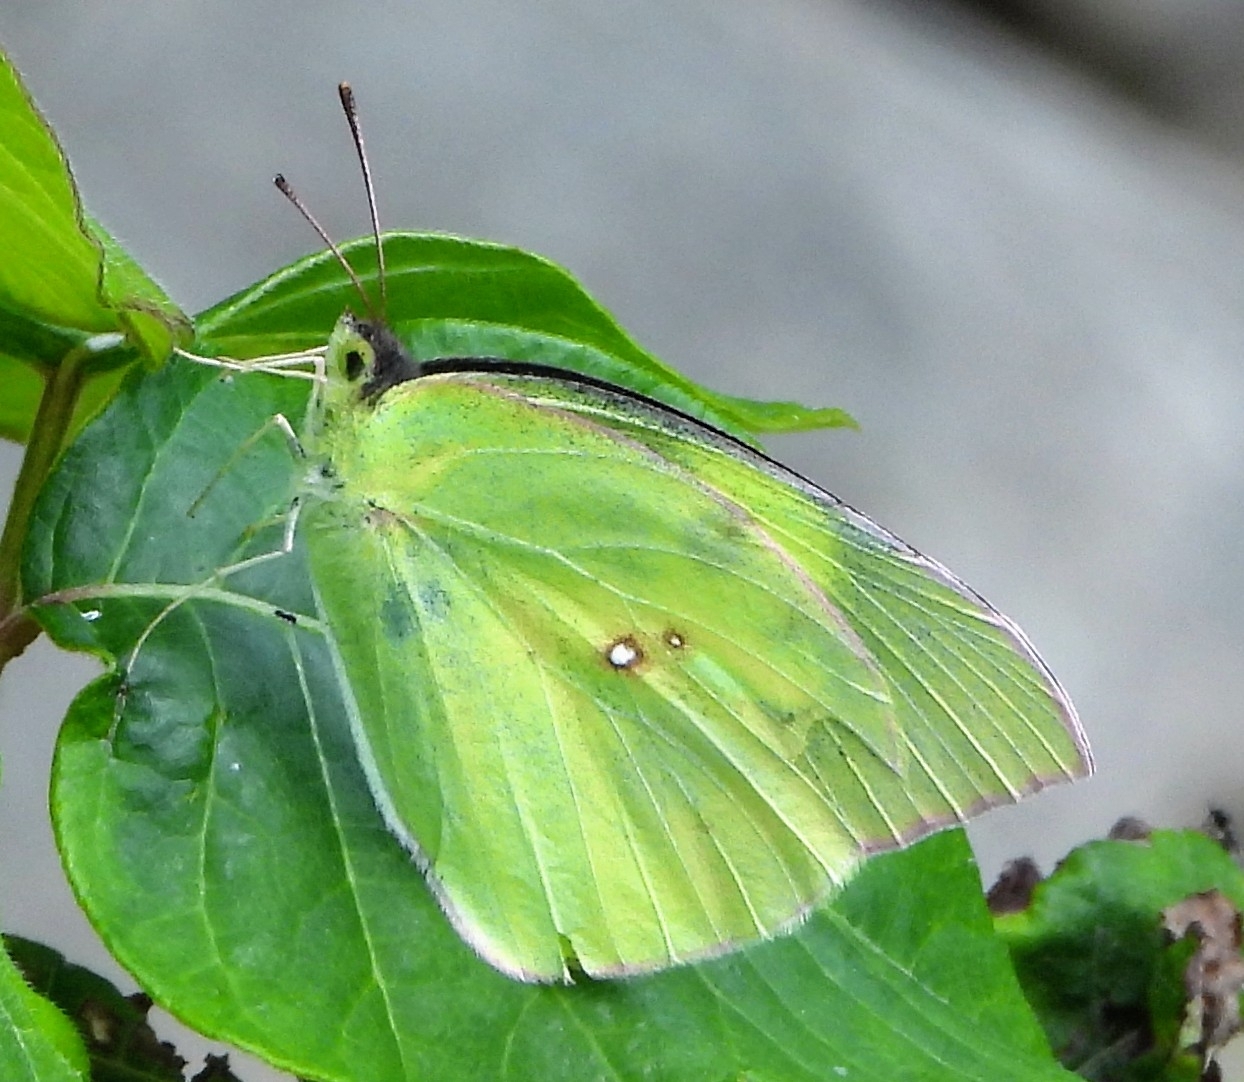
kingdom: Animalia
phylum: Arthropoda
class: Insecta
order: Lepidoptera
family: Pieridae
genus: Zerene
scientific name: Zerene cesonia
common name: Southern dogface
